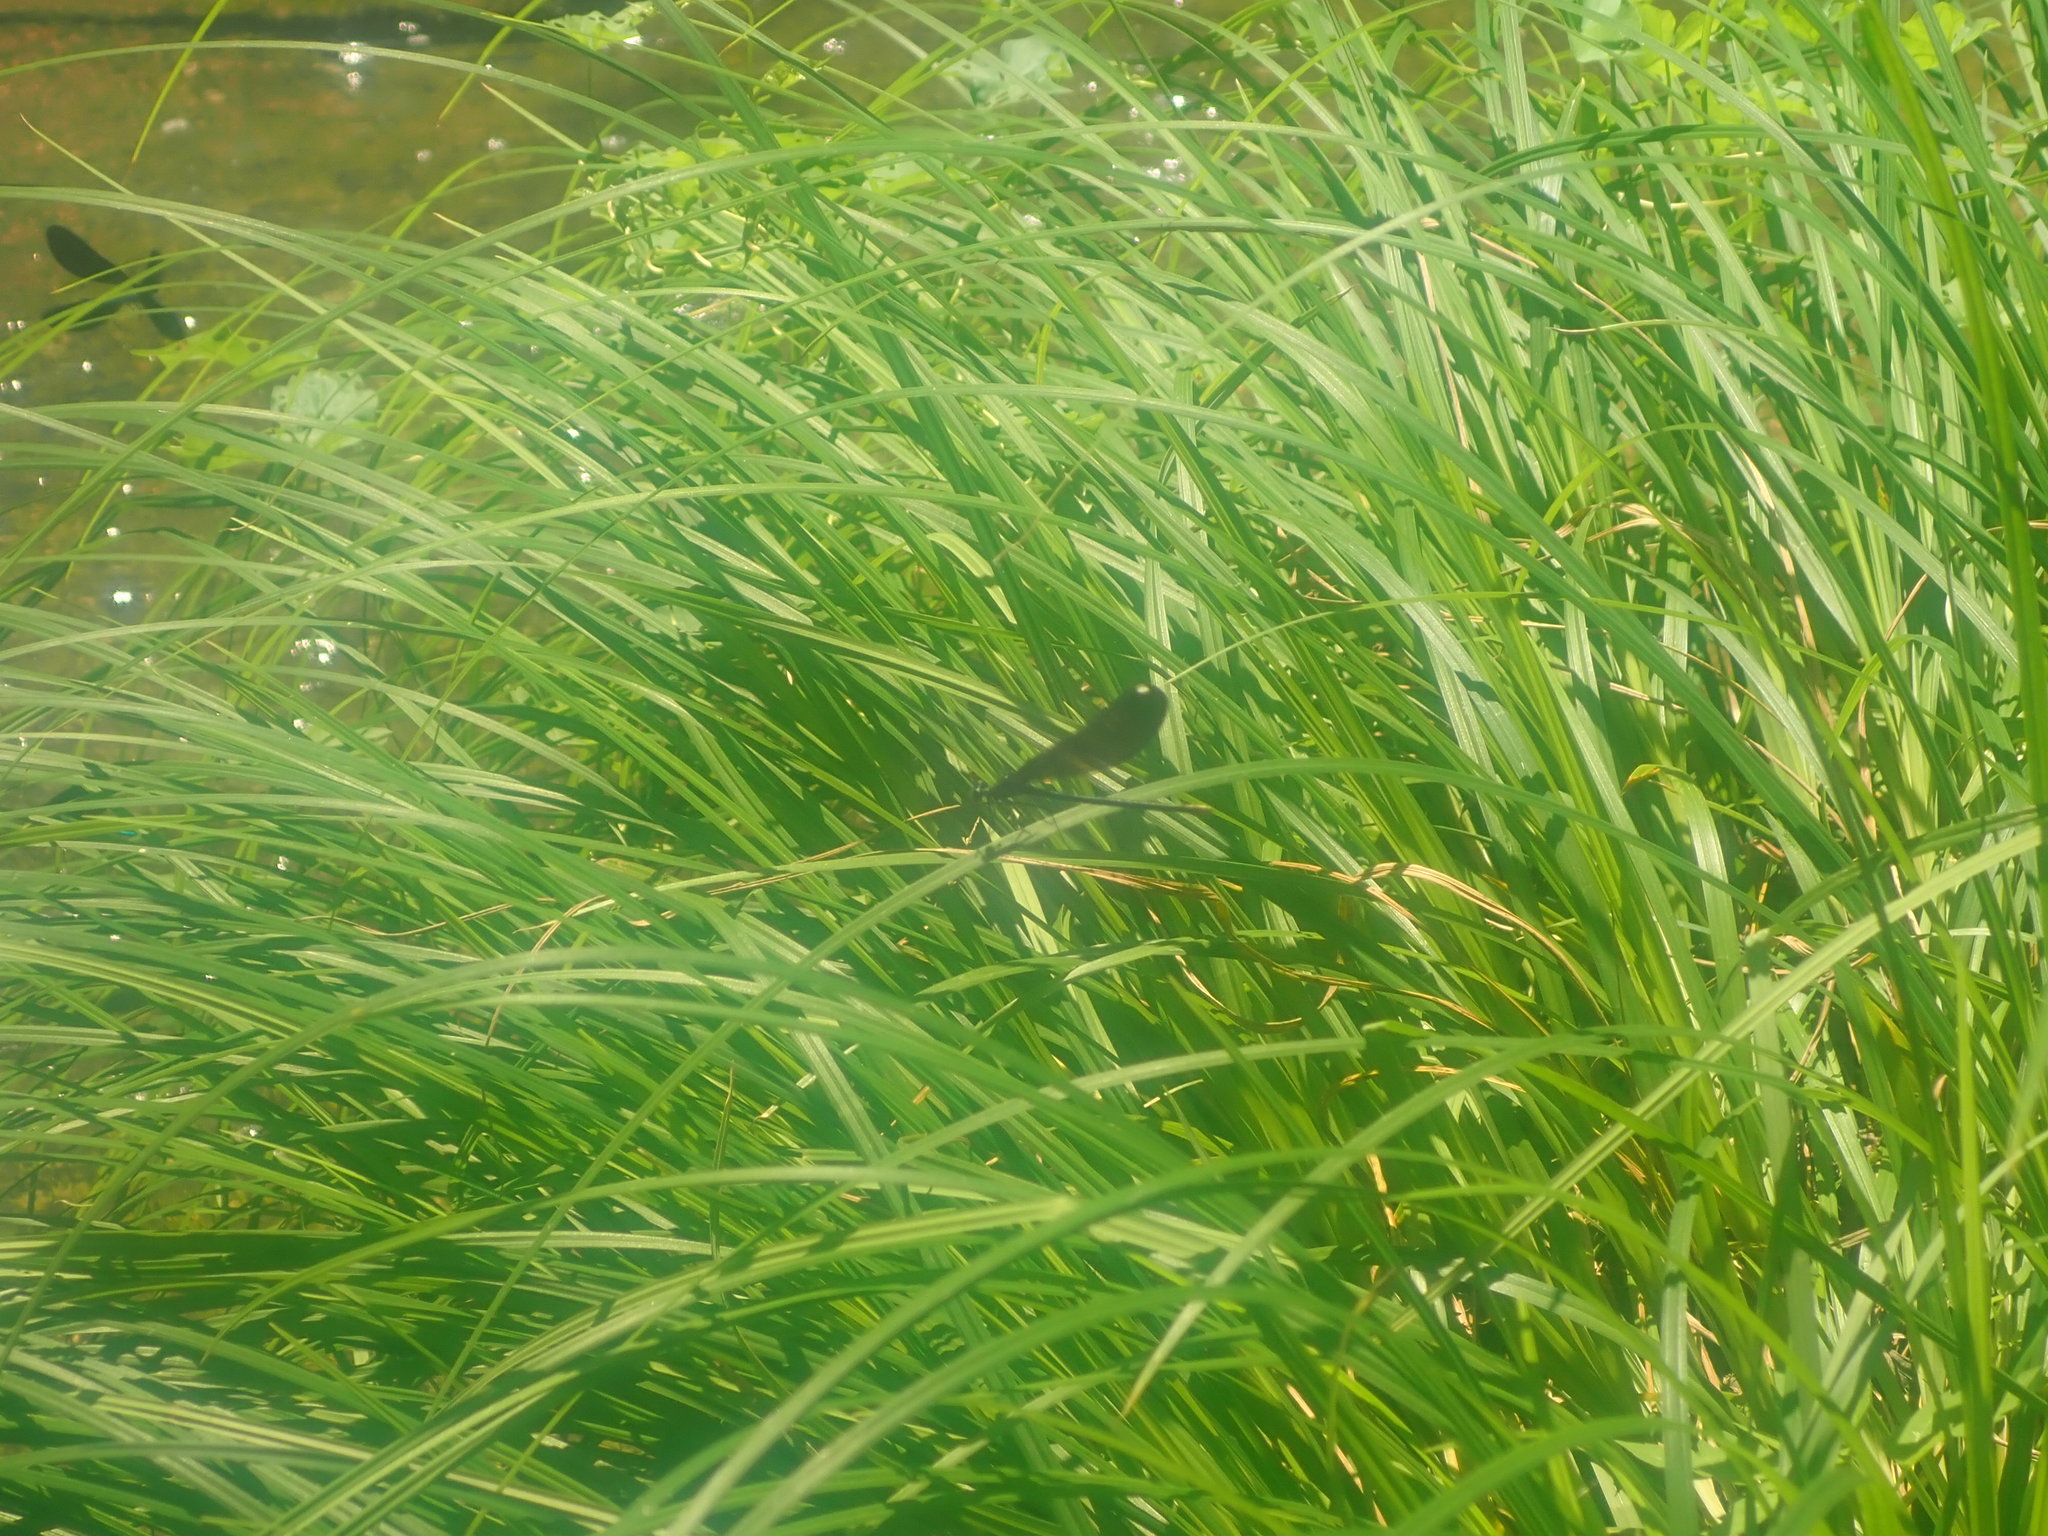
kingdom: Animalia
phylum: Arthropoda
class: Insecta
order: Odonata
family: Calopterygidae
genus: Calopteryx
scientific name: Calopteryx maculata
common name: Ebony jewelwing
